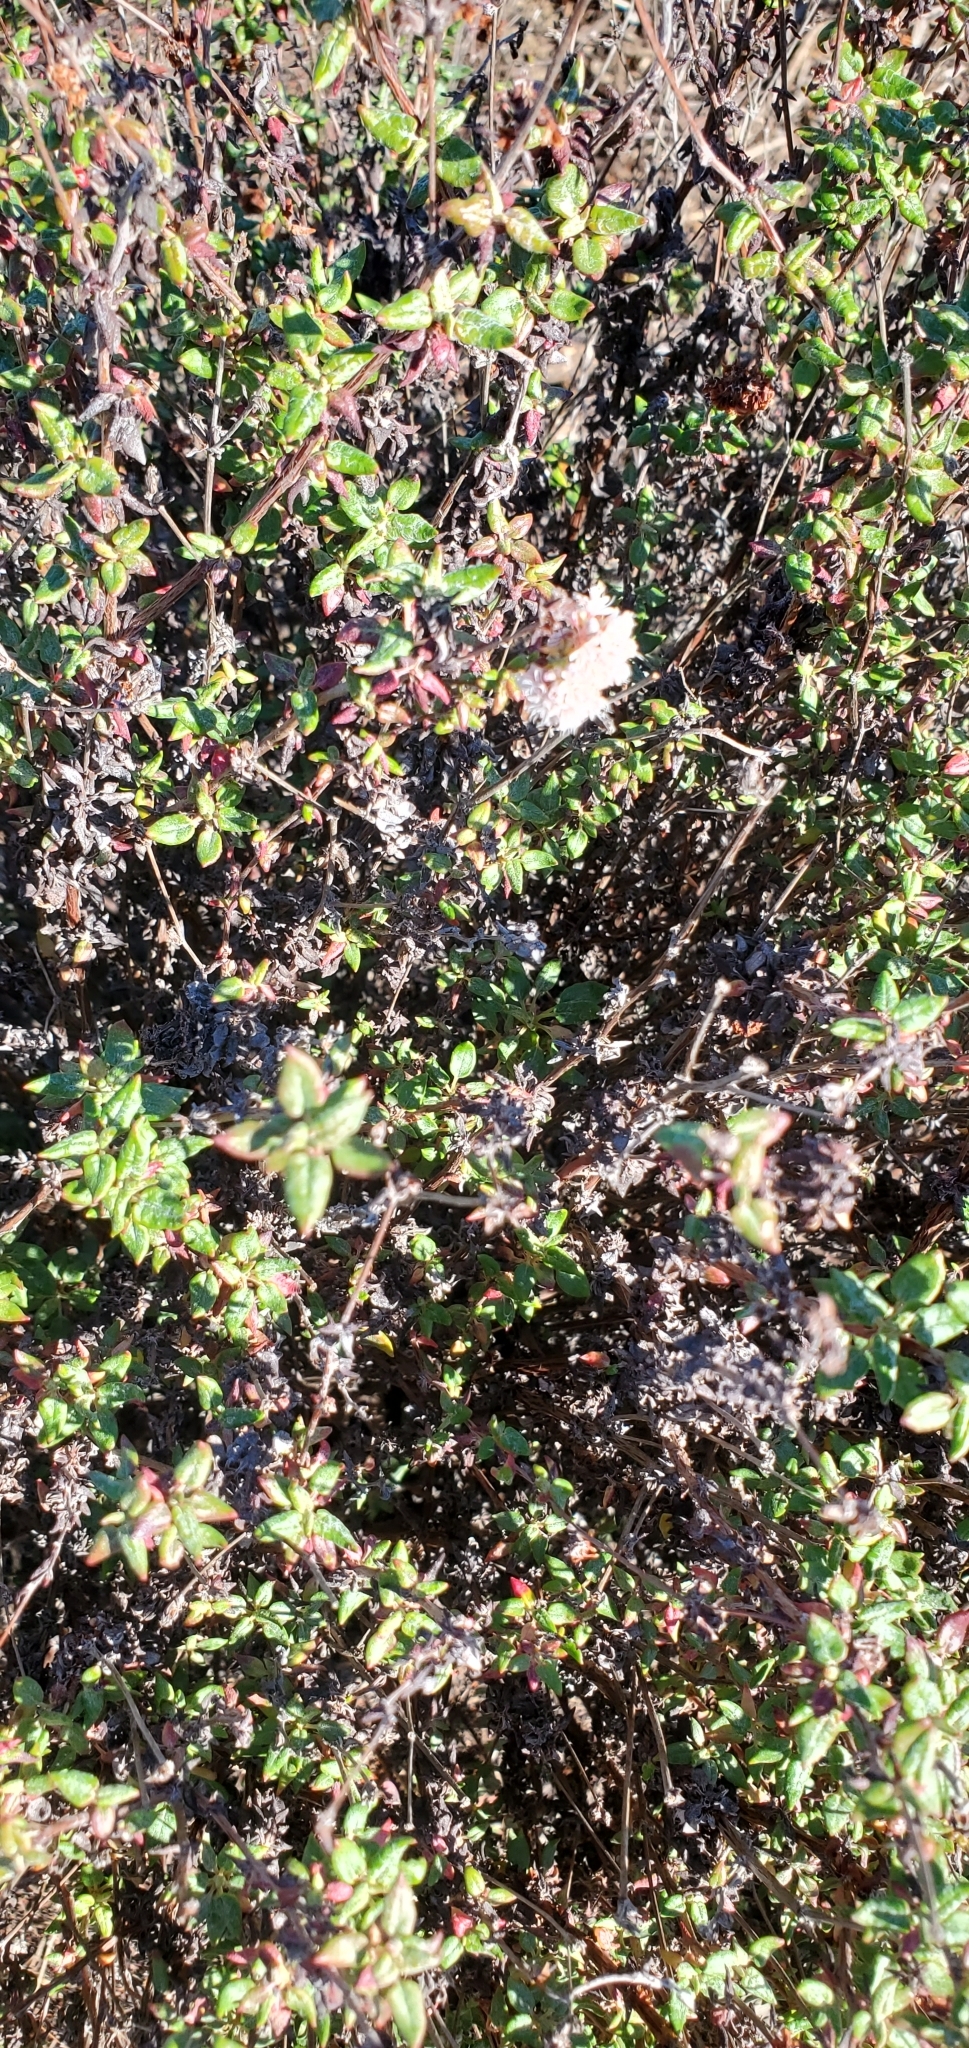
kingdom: Plantae
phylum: Tracheophyta
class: Magnoliopsida
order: Caryophyllales
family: Polygonaceae
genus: Eriogonum
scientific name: Eriogonum parvifolium
